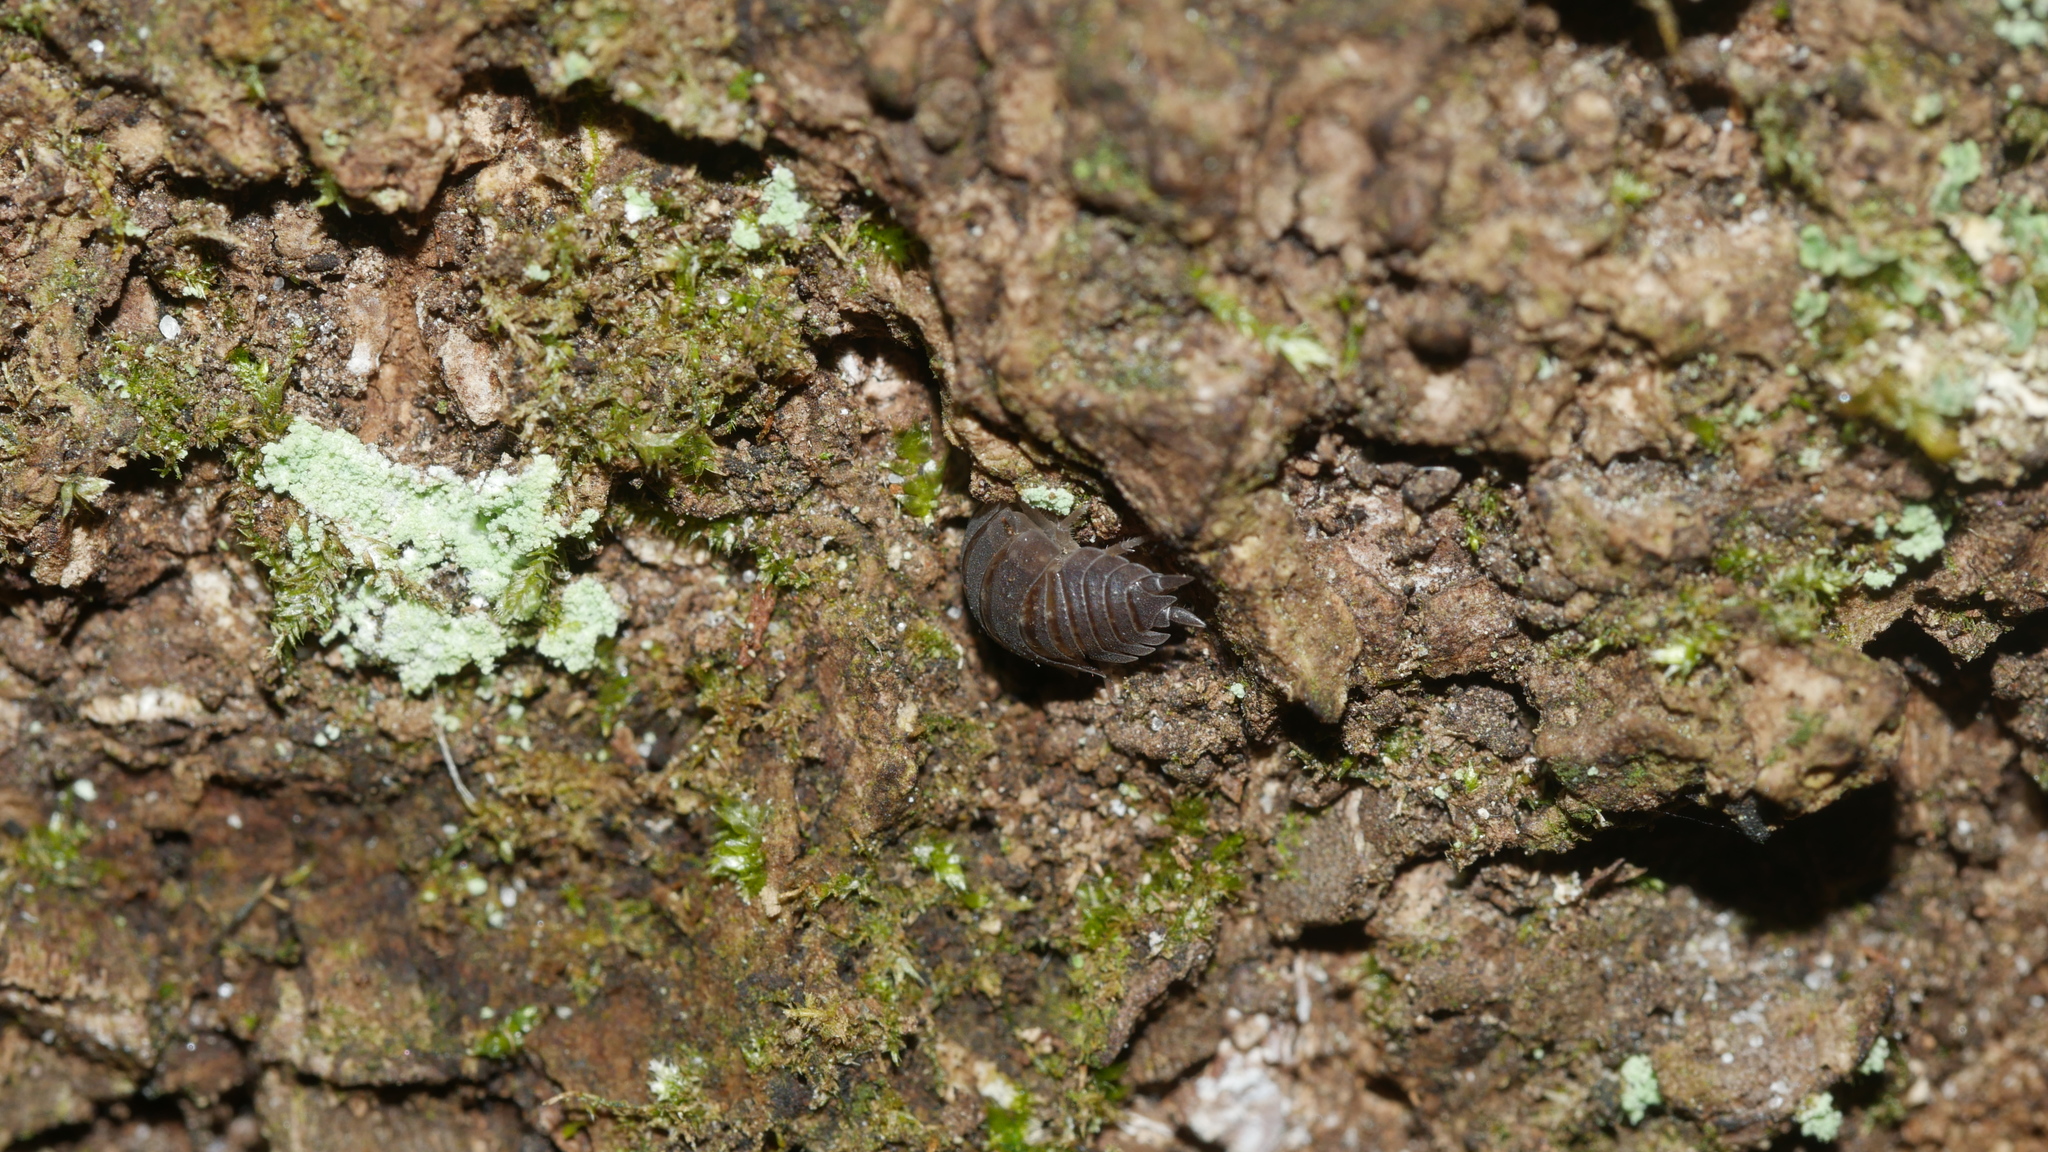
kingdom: Animalia
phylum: Arthropoda
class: Malacostraca
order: Isopoda
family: Porcellionidae
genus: Porcellio
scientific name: Porcellio scaber
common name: Common rough woodlouse
